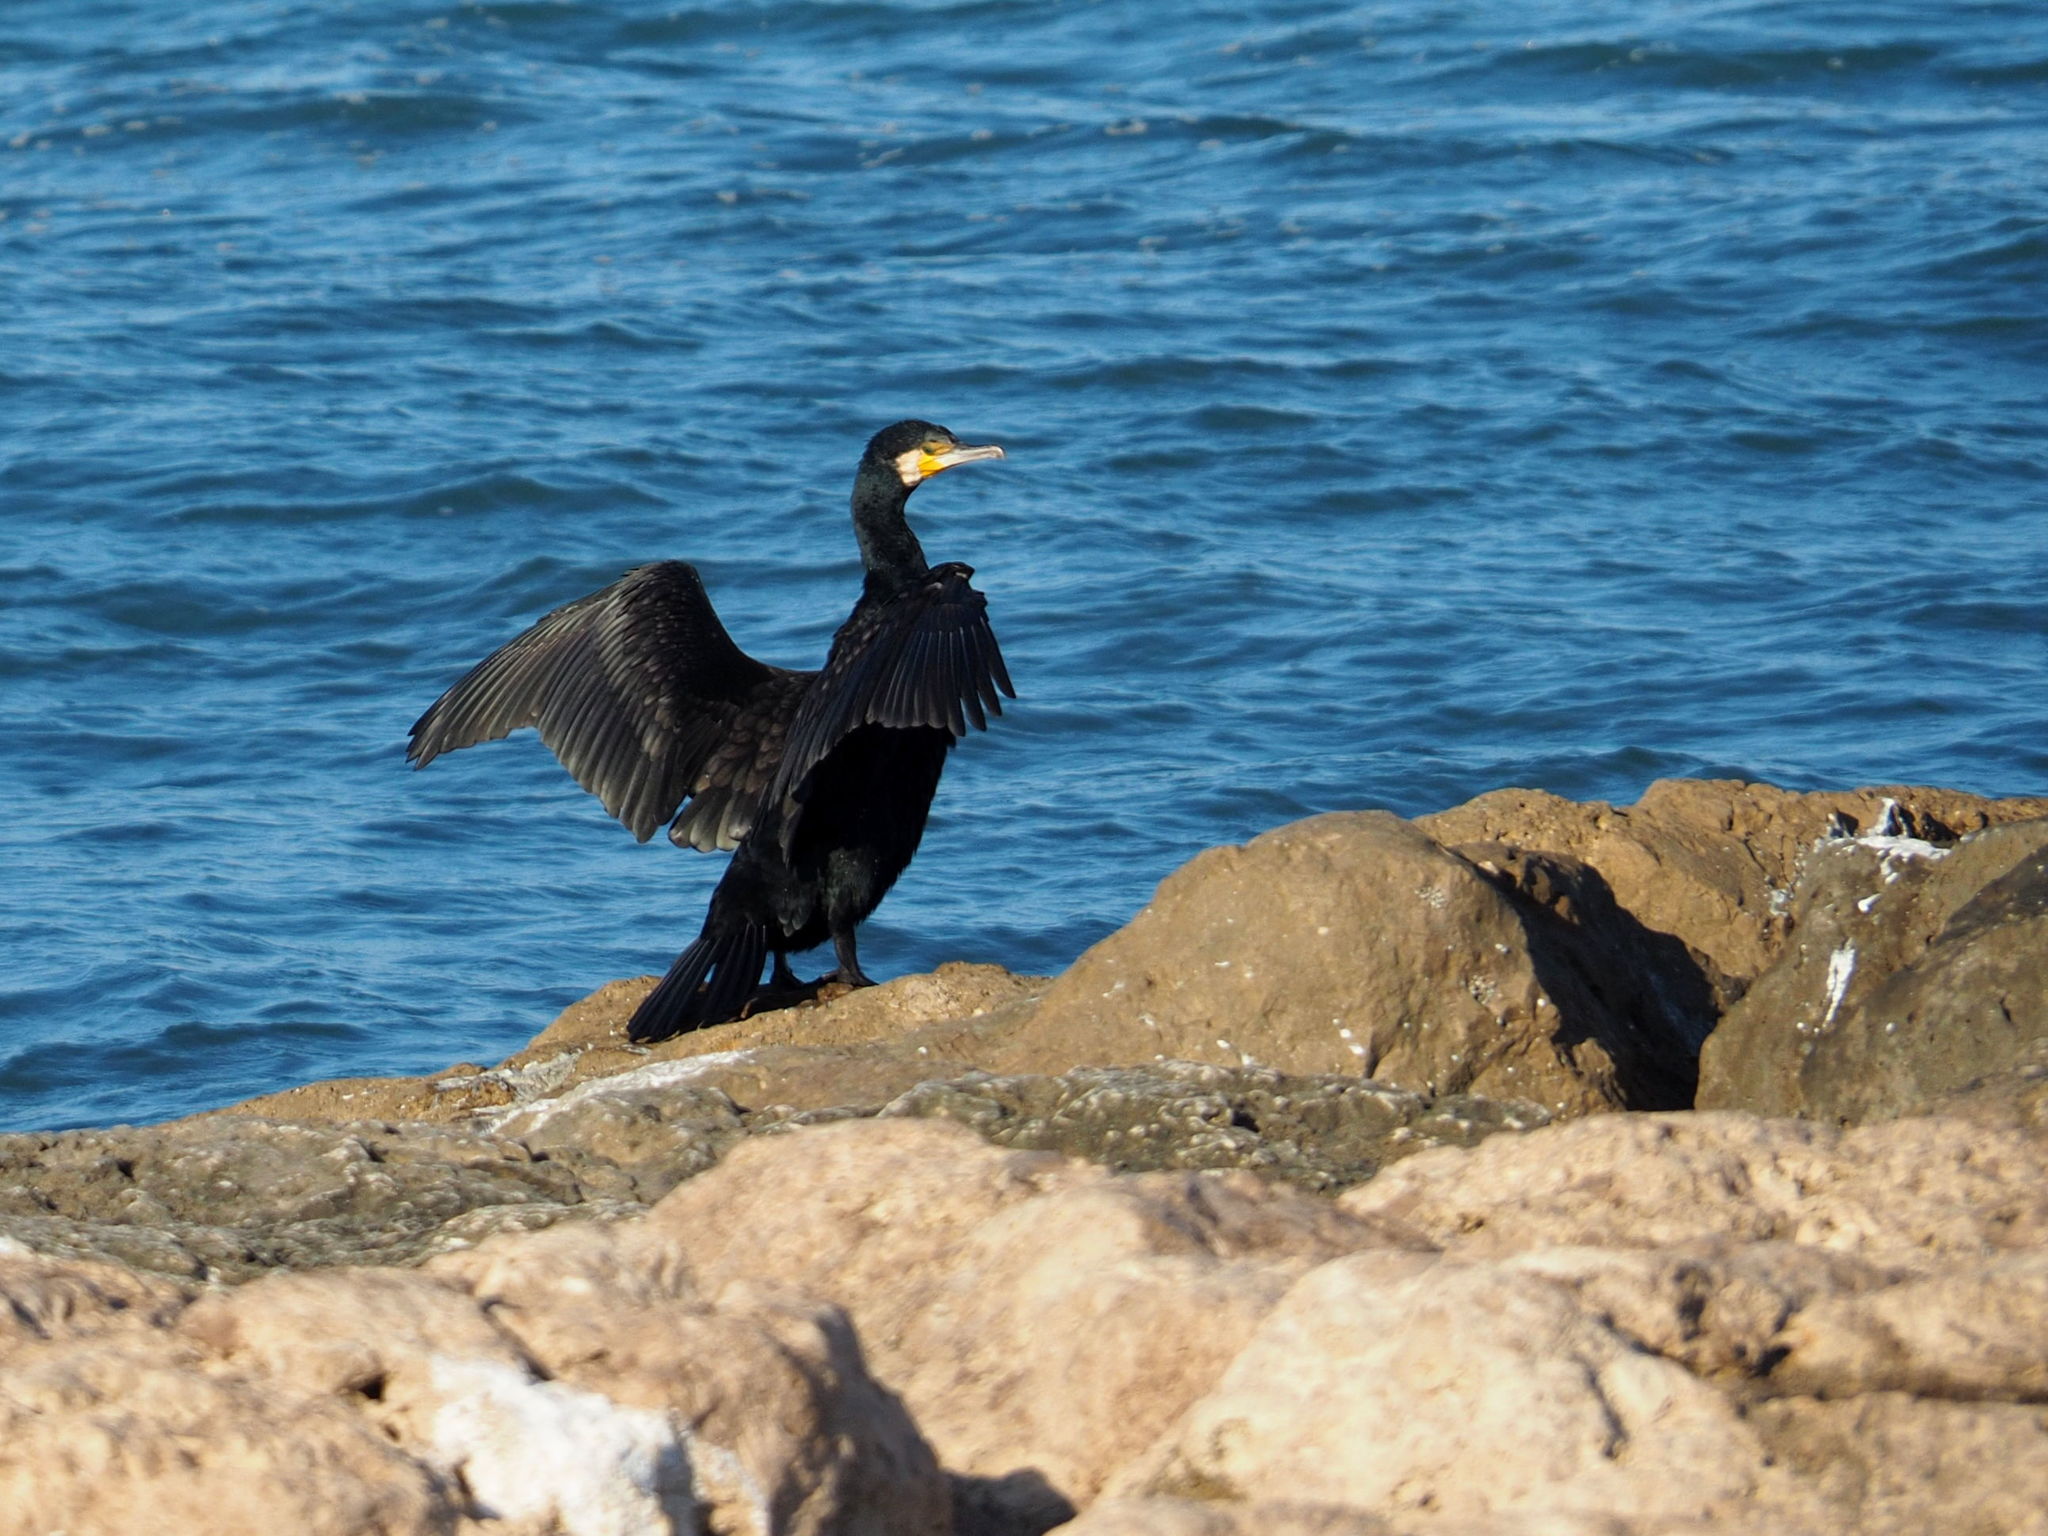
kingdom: Animalia
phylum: Chordata
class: Aves
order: Suliformes
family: Phalacrocoracidae
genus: Phalacrocorax
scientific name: Phalacrocorax carbo
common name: Great cormorant
